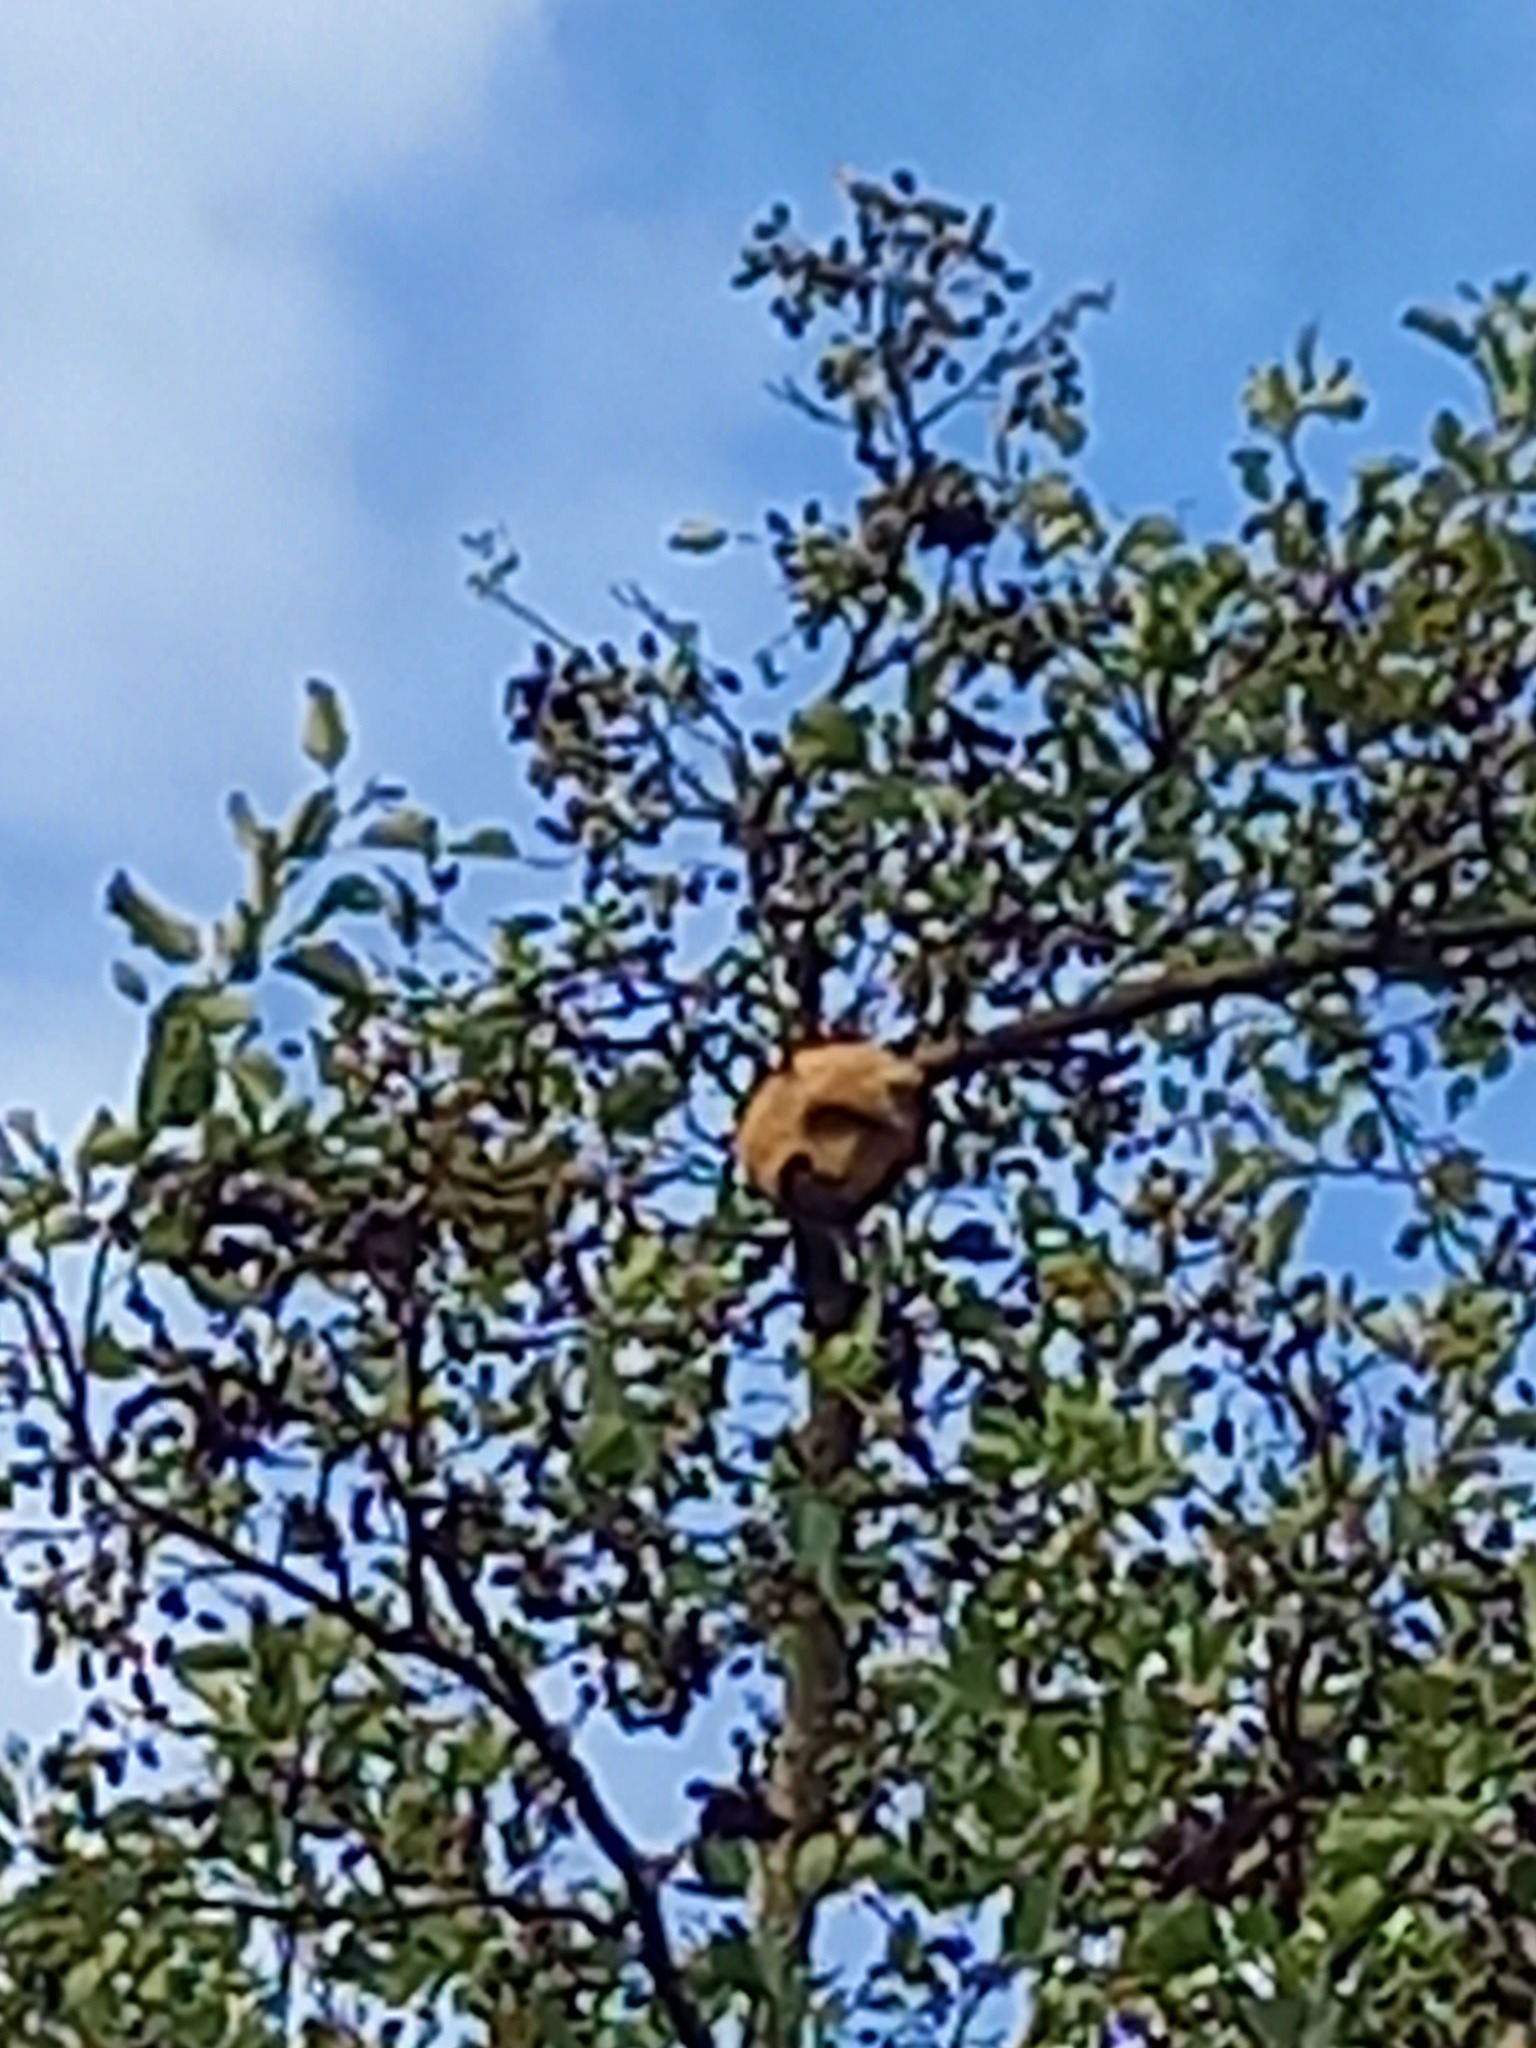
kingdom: Animalia
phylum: Arthropoda
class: Insecta
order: Hymenoptera
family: Vespidae
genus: Vespa
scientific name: Vespa velutina
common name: Asian hornet
